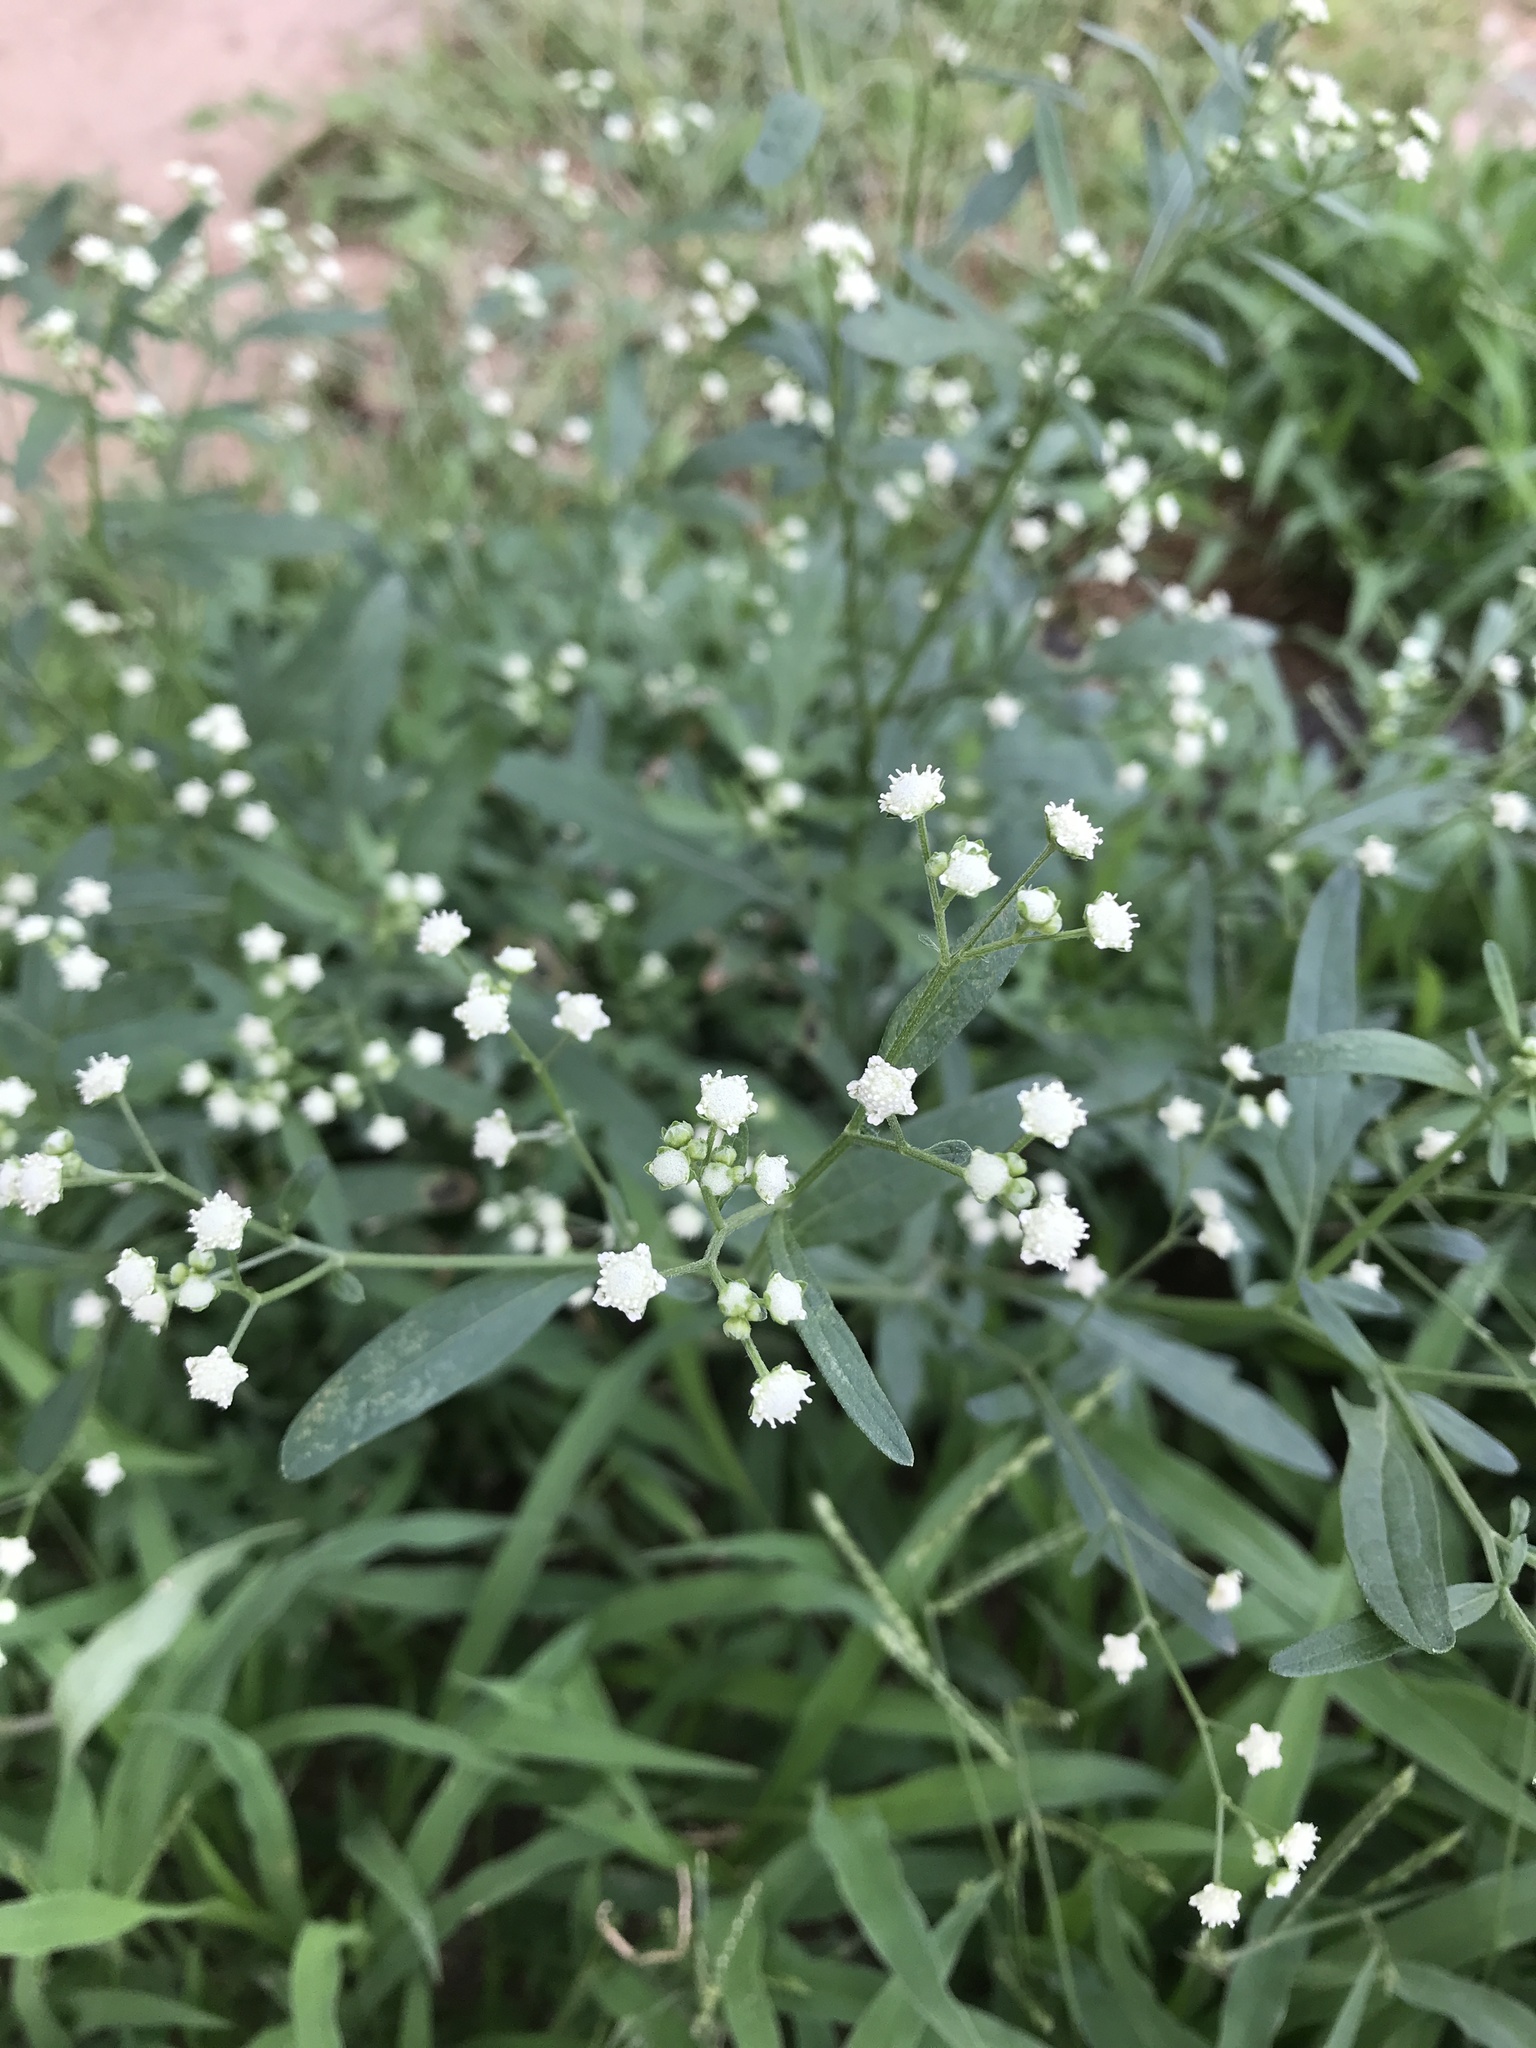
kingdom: Plantae
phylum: Tracheophyta
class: Magnoliopsida
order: Asterales
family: Asteraceae
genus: Parthenium
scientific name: Parthenium hysterophorus
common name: Santa maria feverfew
